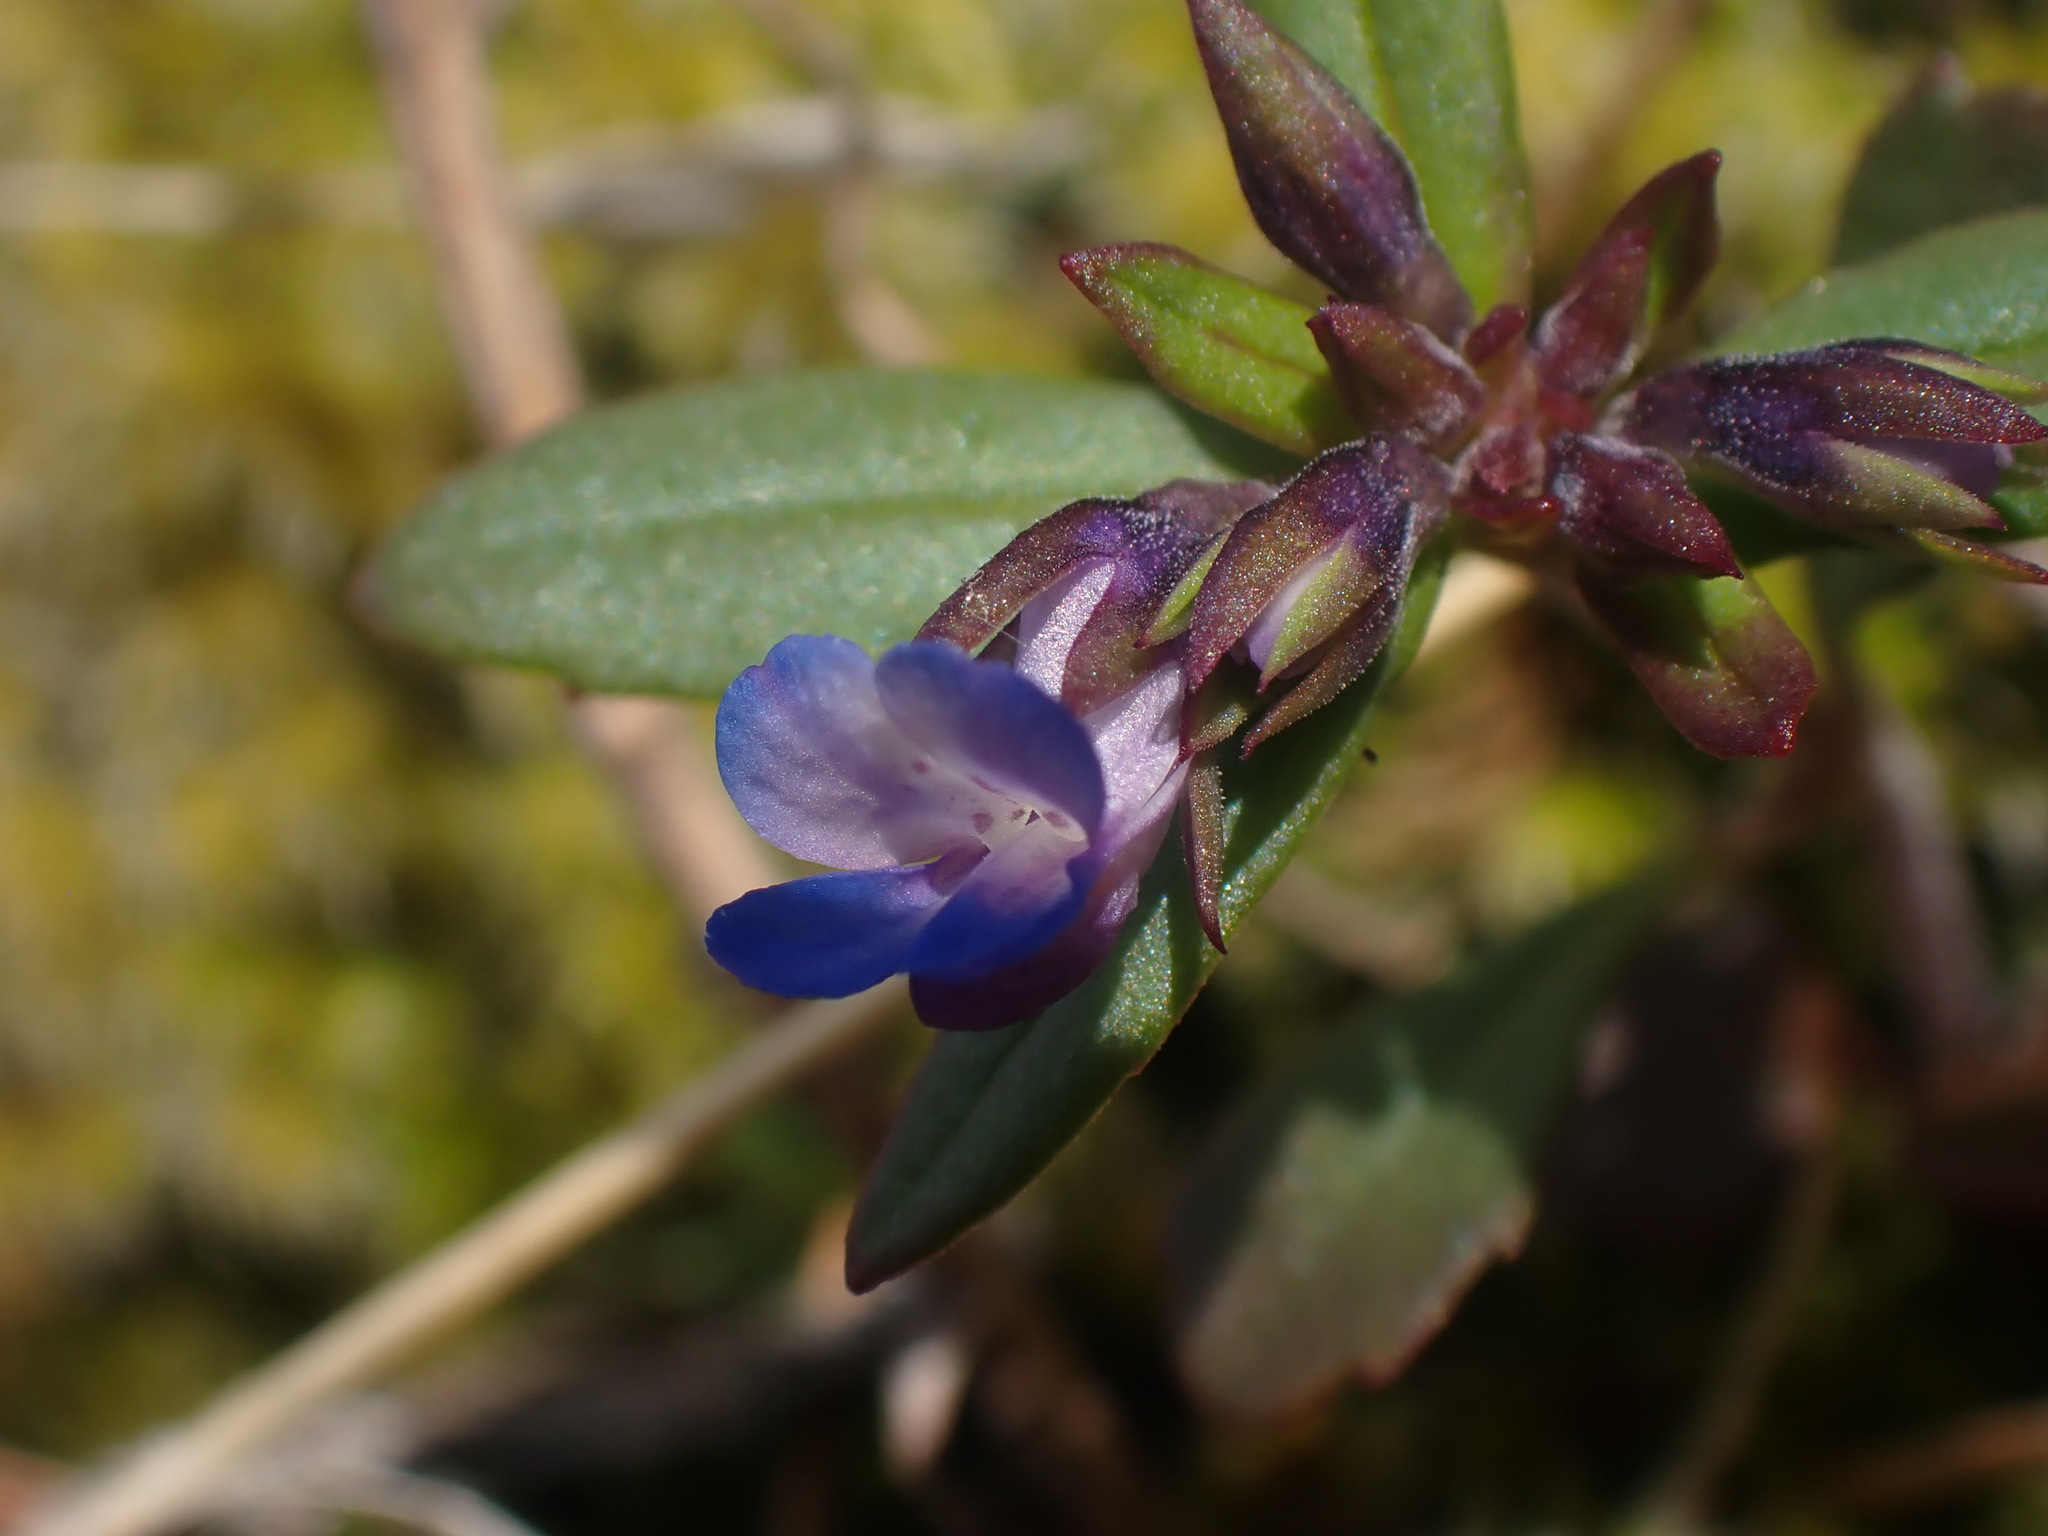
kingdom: Plantae
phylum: Tracheophyta
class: Magnoliopsida
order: Lamiales
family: Plantaginaceae
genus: Collinsia
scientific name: Collinsia parviflora
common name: Blue-lips
